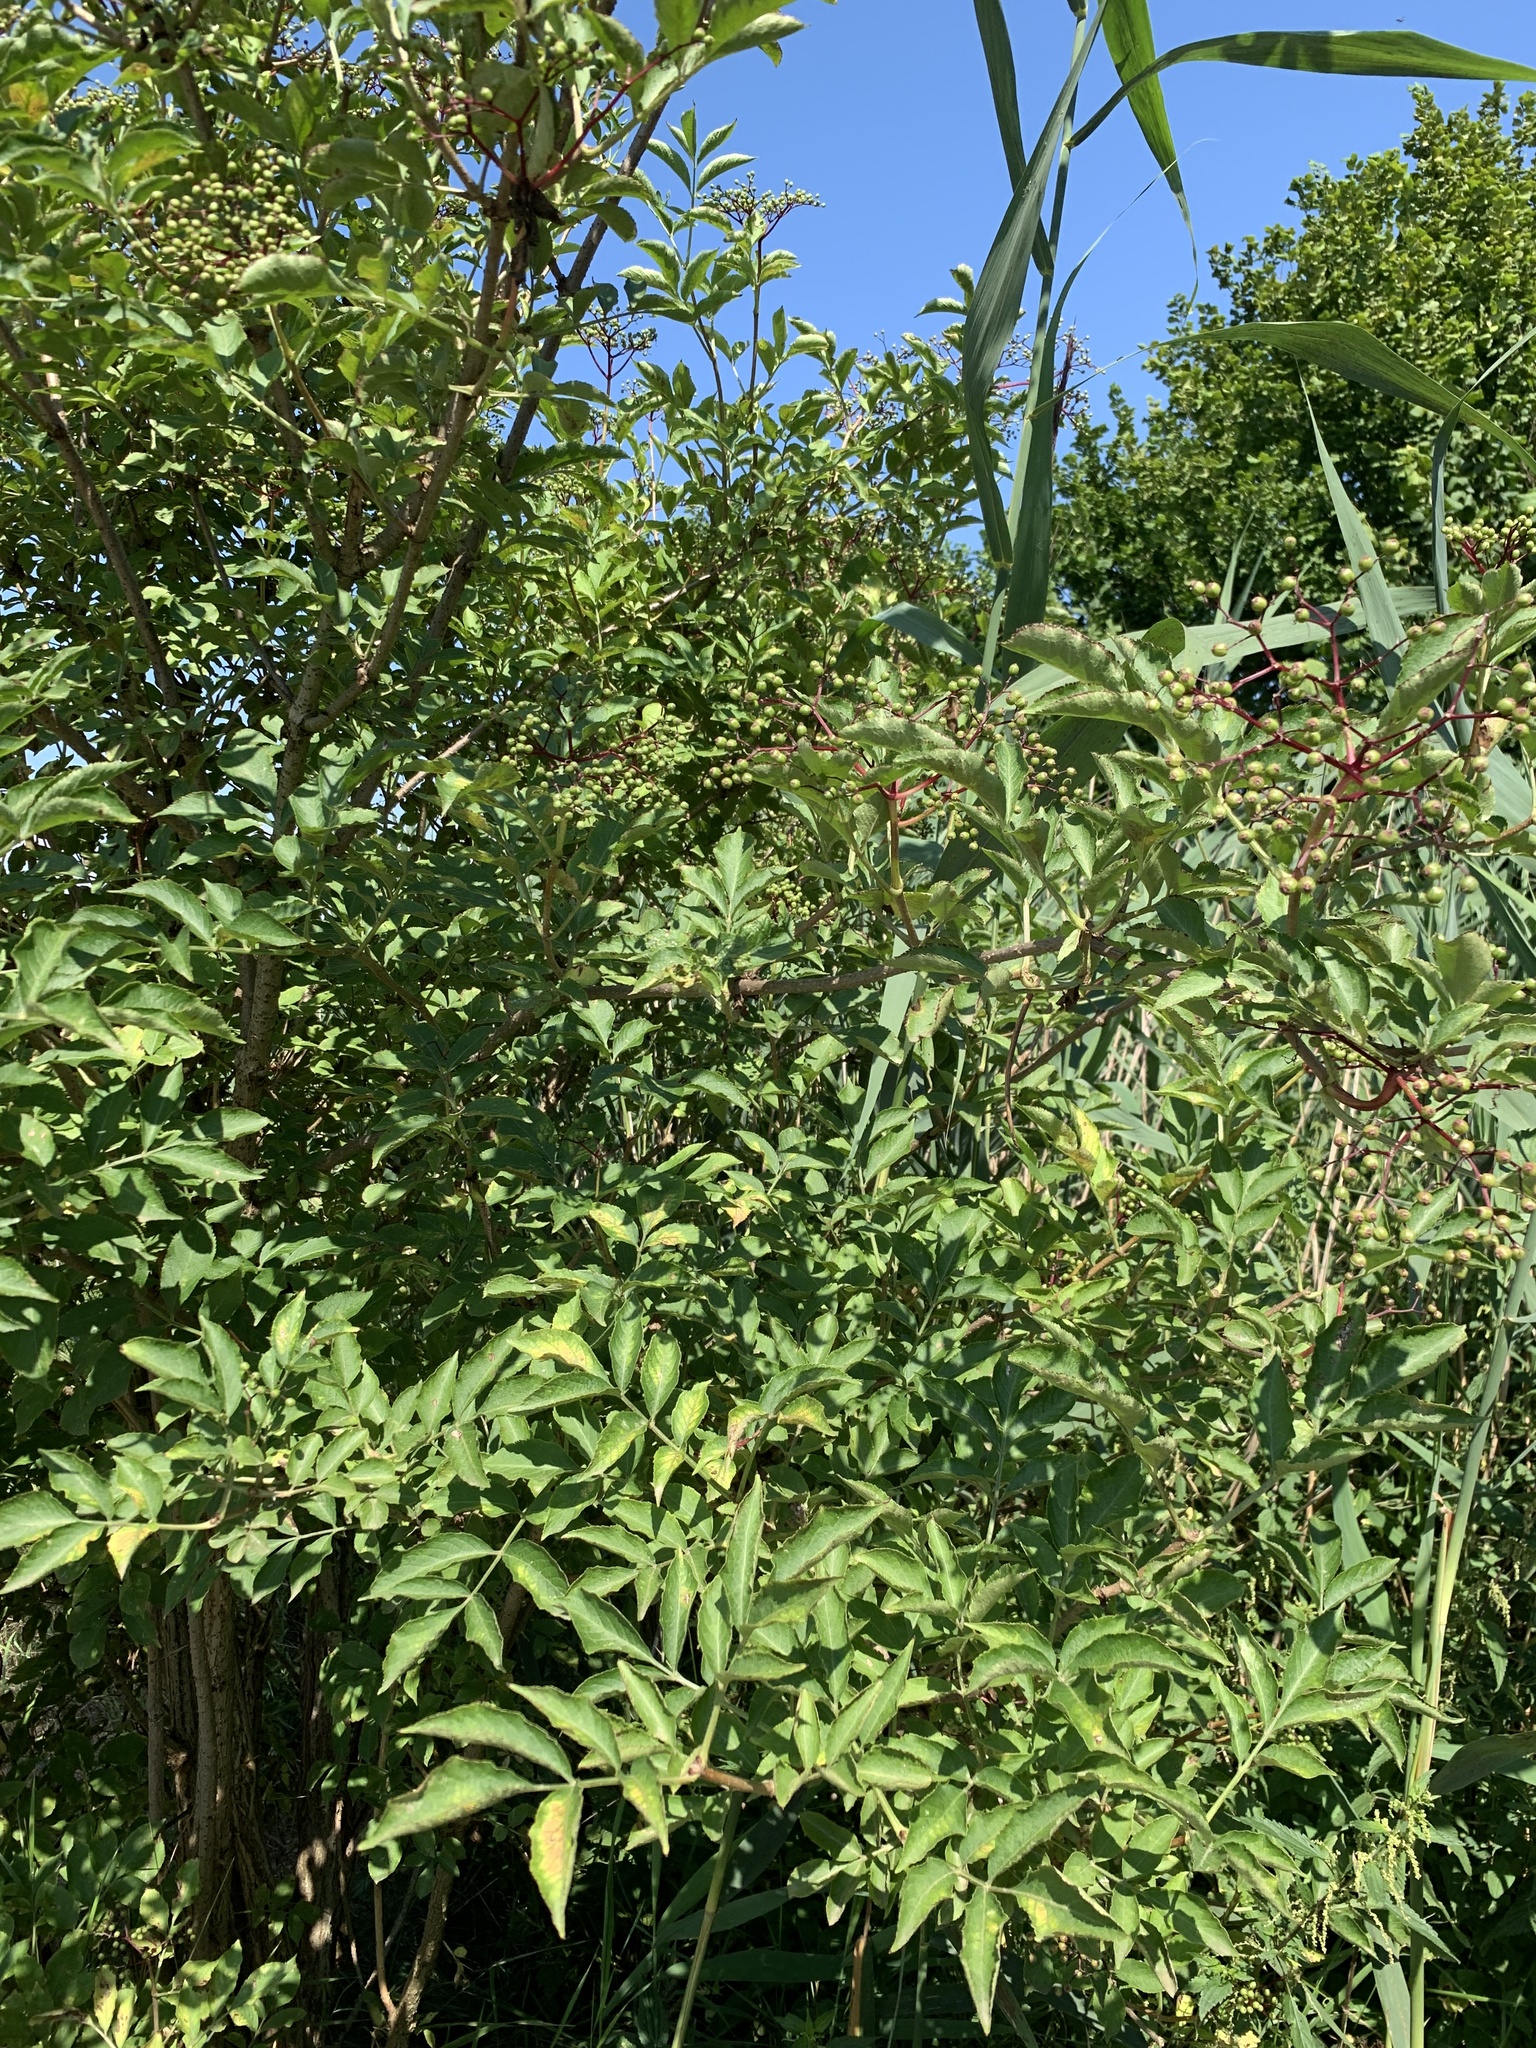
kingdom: Plantae
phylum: Tracheophyta
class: Magnoliopsida
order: Dipsacales
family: Viburnaceae
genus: Sambucus
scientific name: Sambucus nigra
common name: Elder
